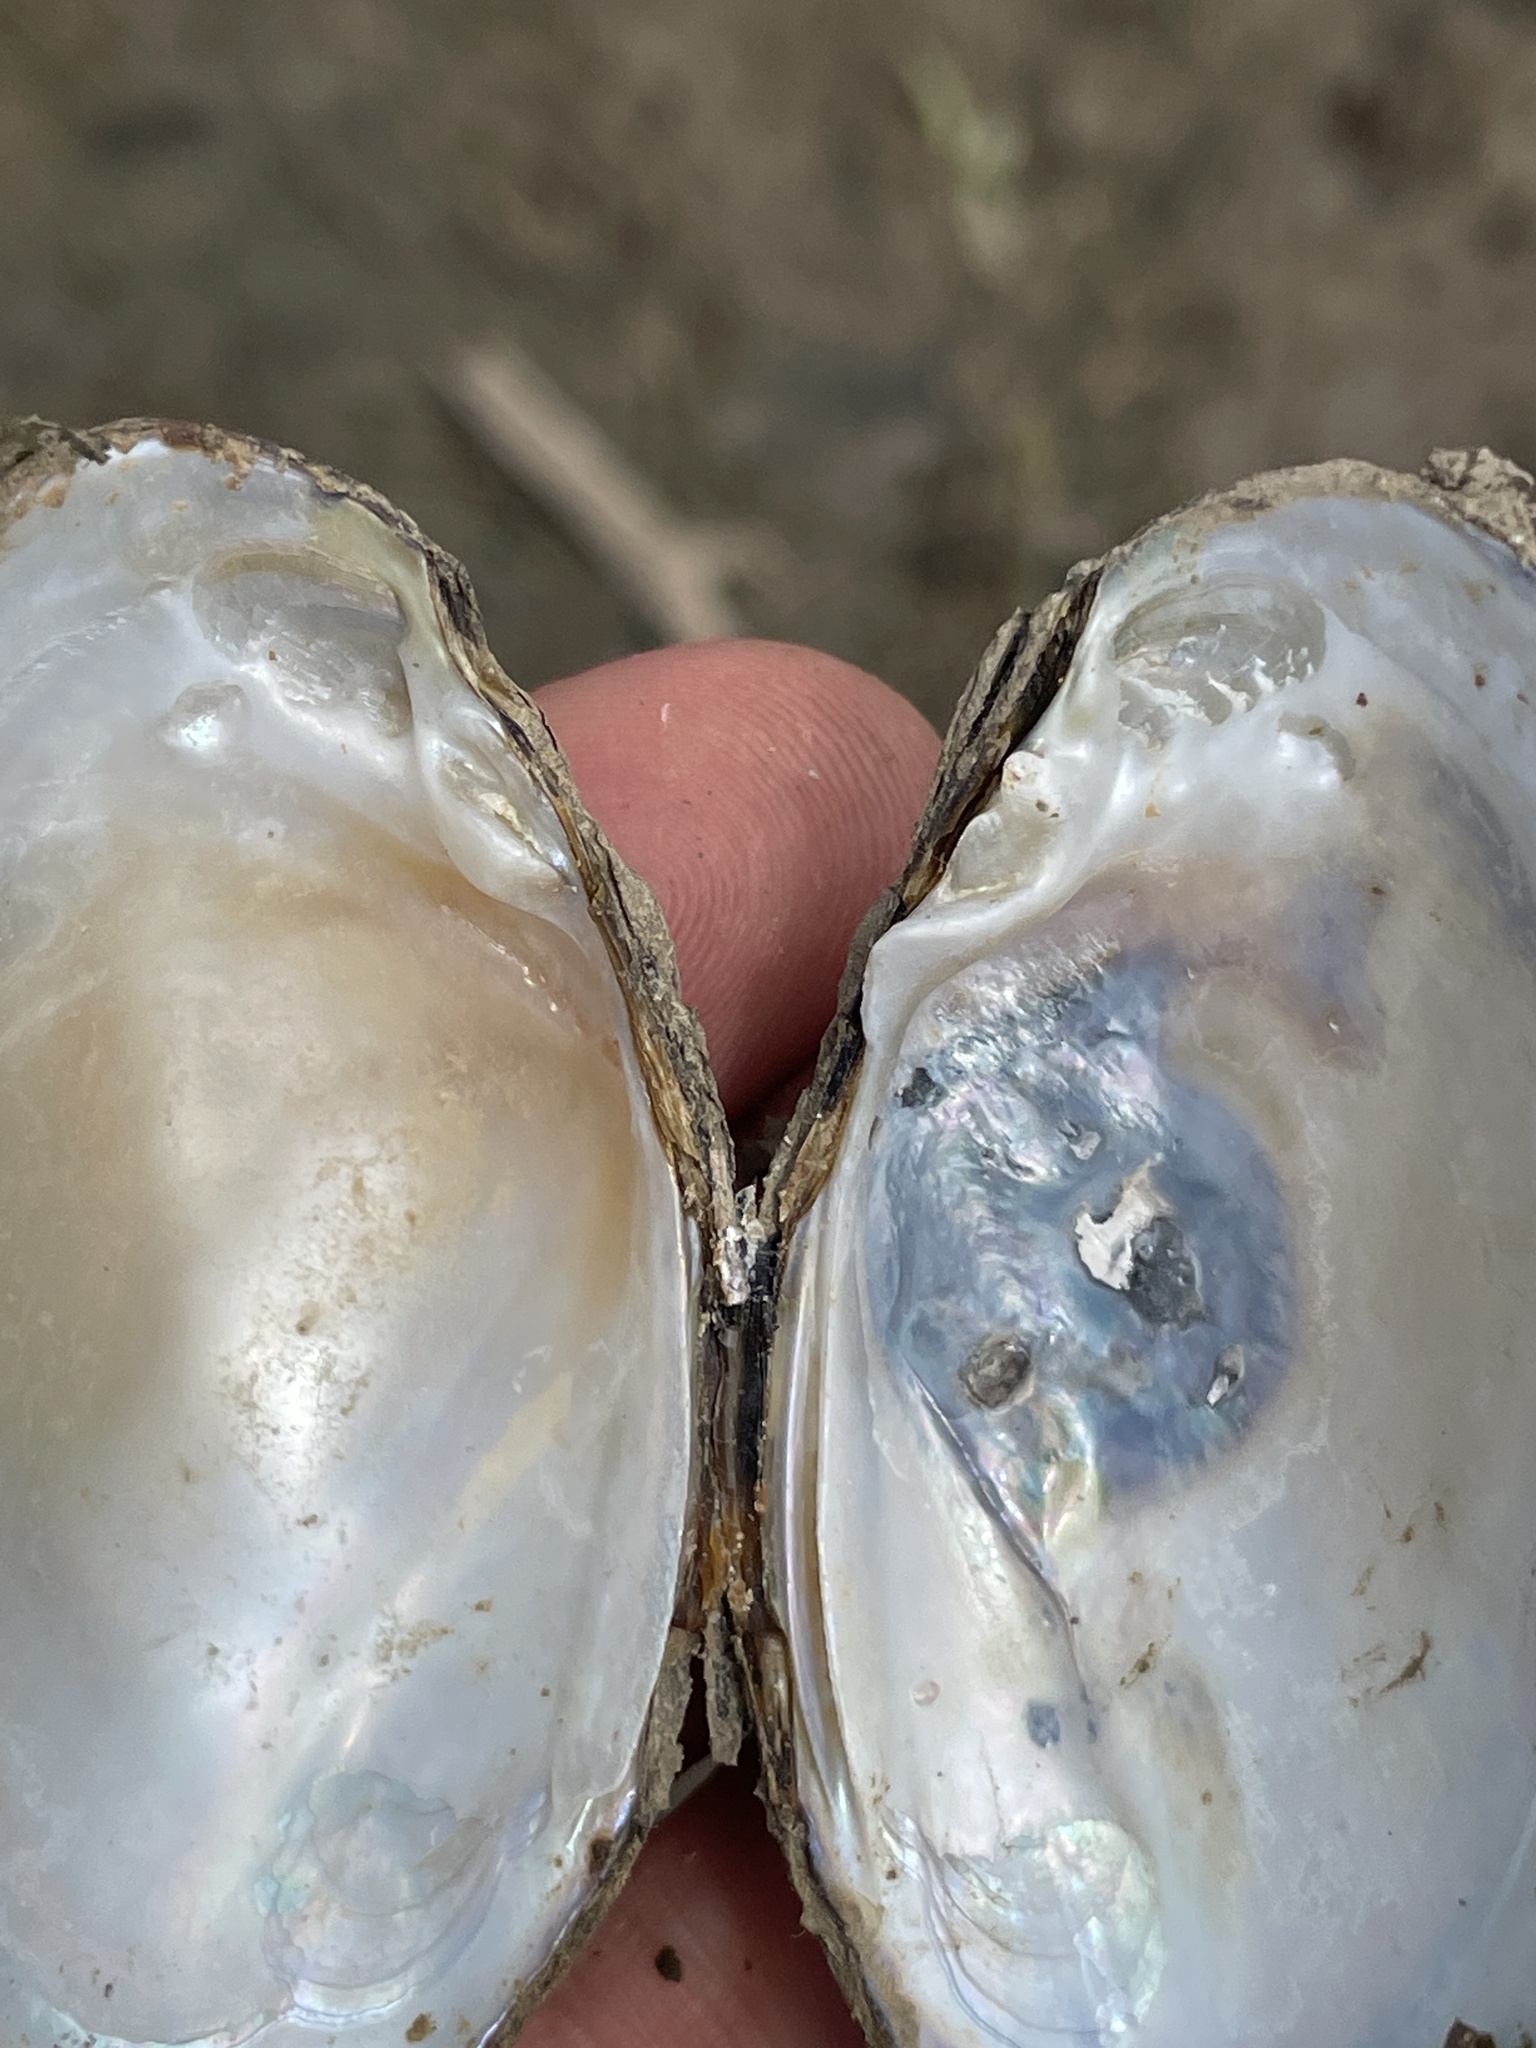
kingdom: Animalia
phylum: Mollusca
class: Bivalvia
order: Unionida
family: Unionidae
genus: Toxolasma
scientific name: Toxolasma texasiense
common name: Texas lilliput
